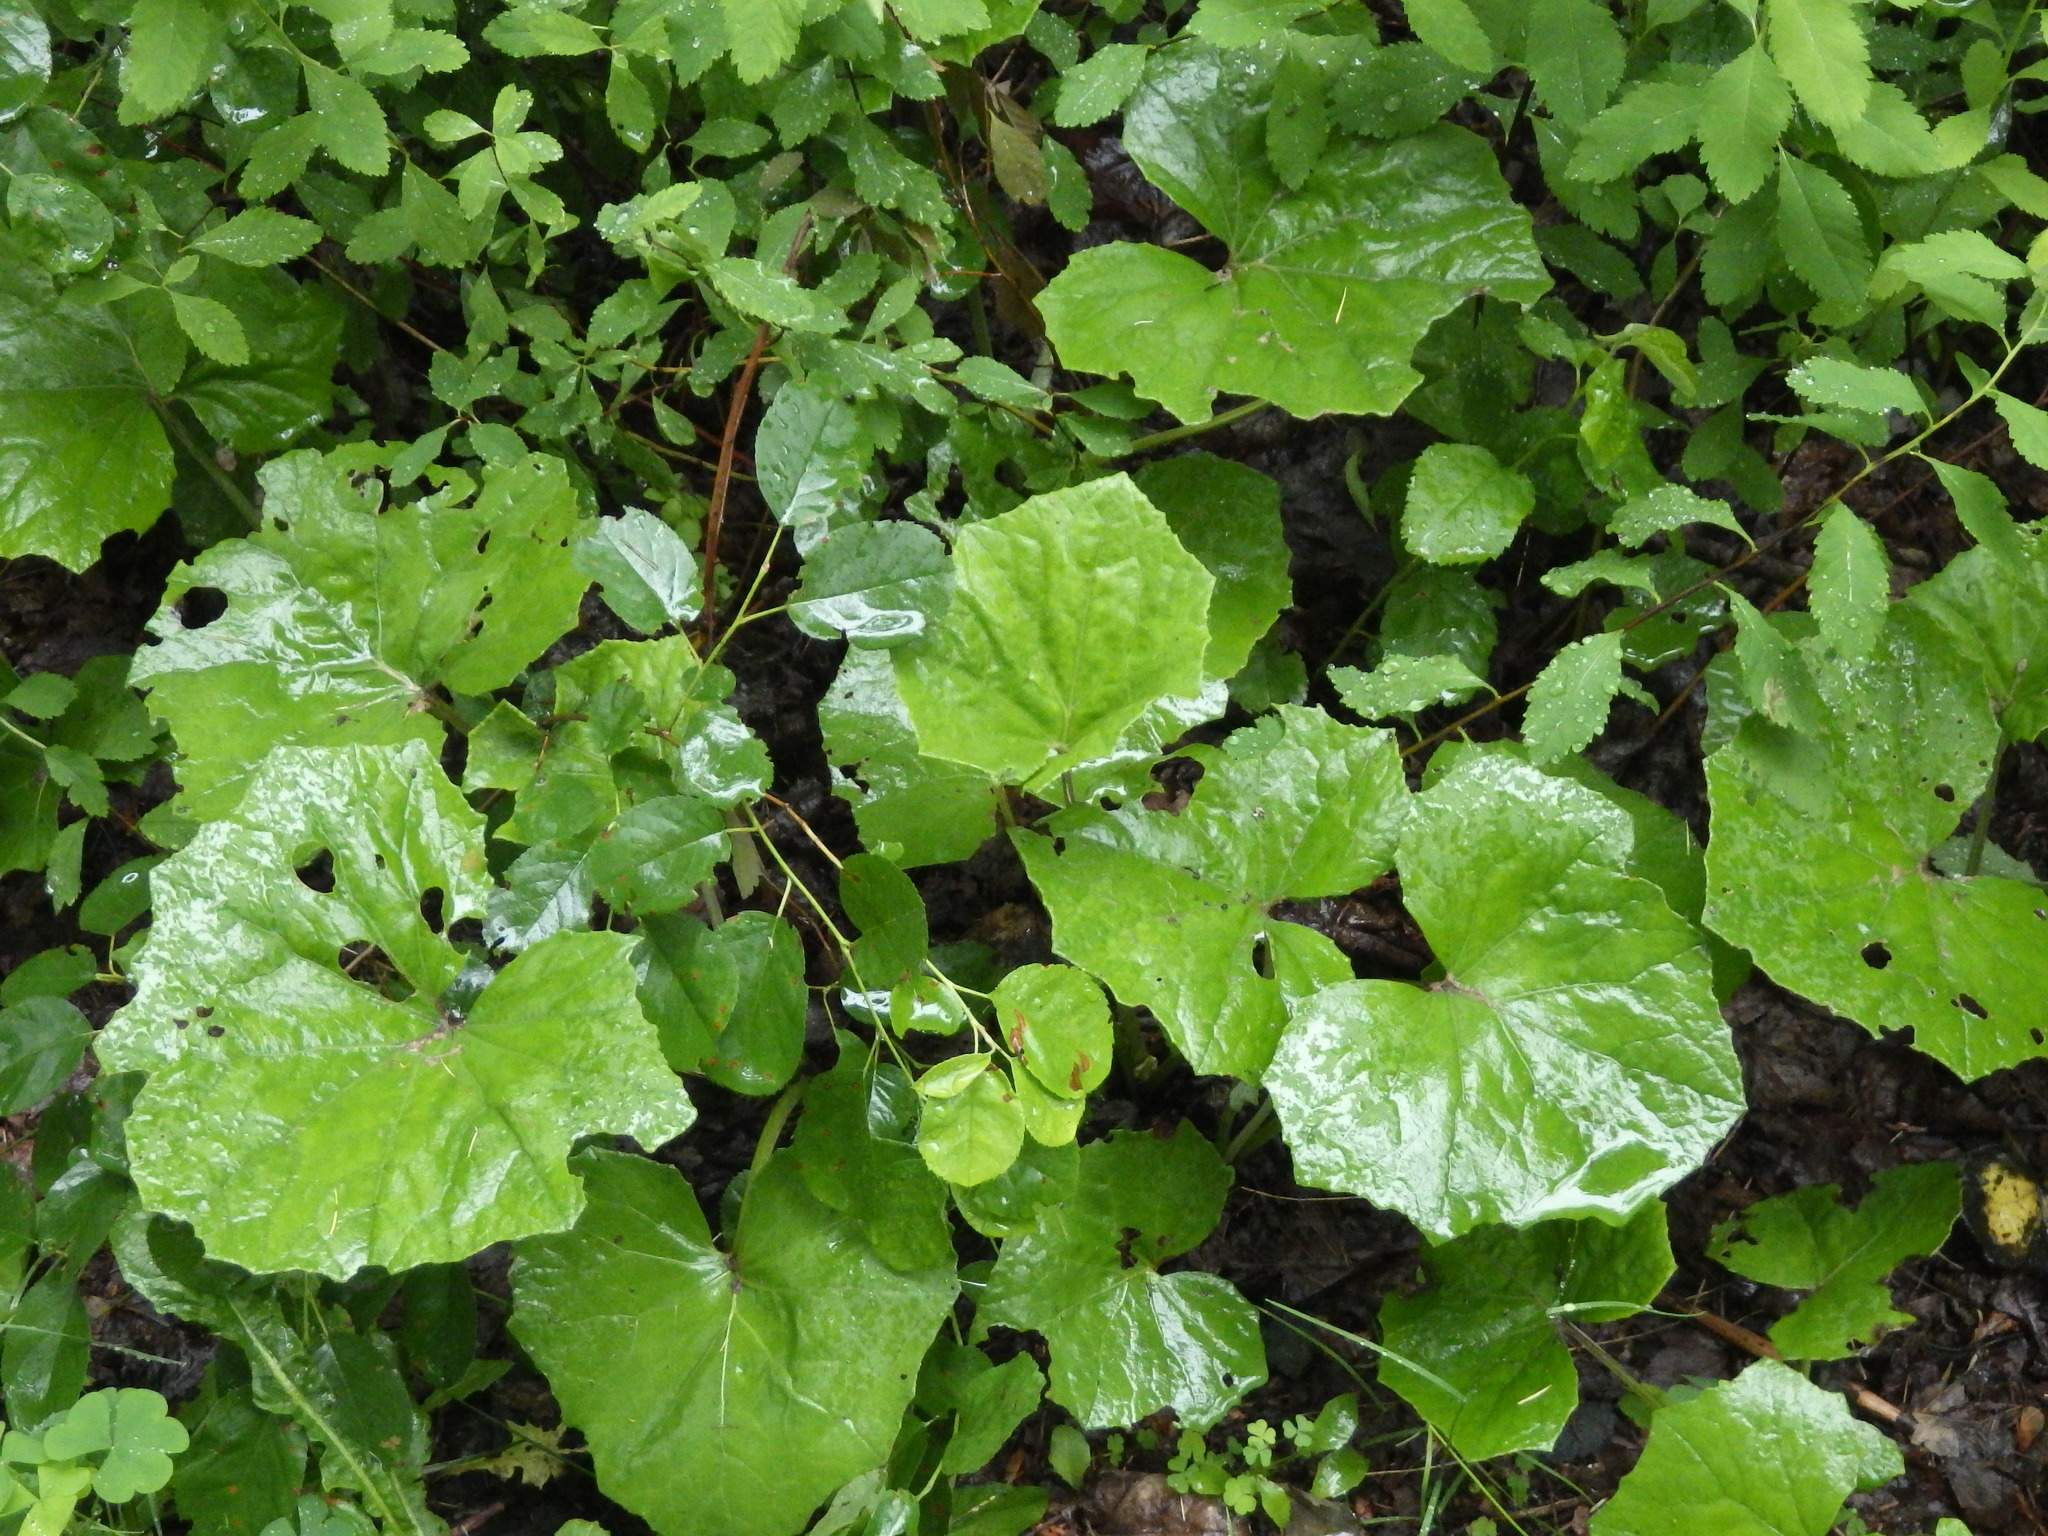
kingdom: Plantae
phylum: Tracheophyta
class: Magnoliopsida
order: Asterales
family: Asteraceae
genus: Tussilago
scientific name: Tussilago farfara
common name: Coltsfoot
